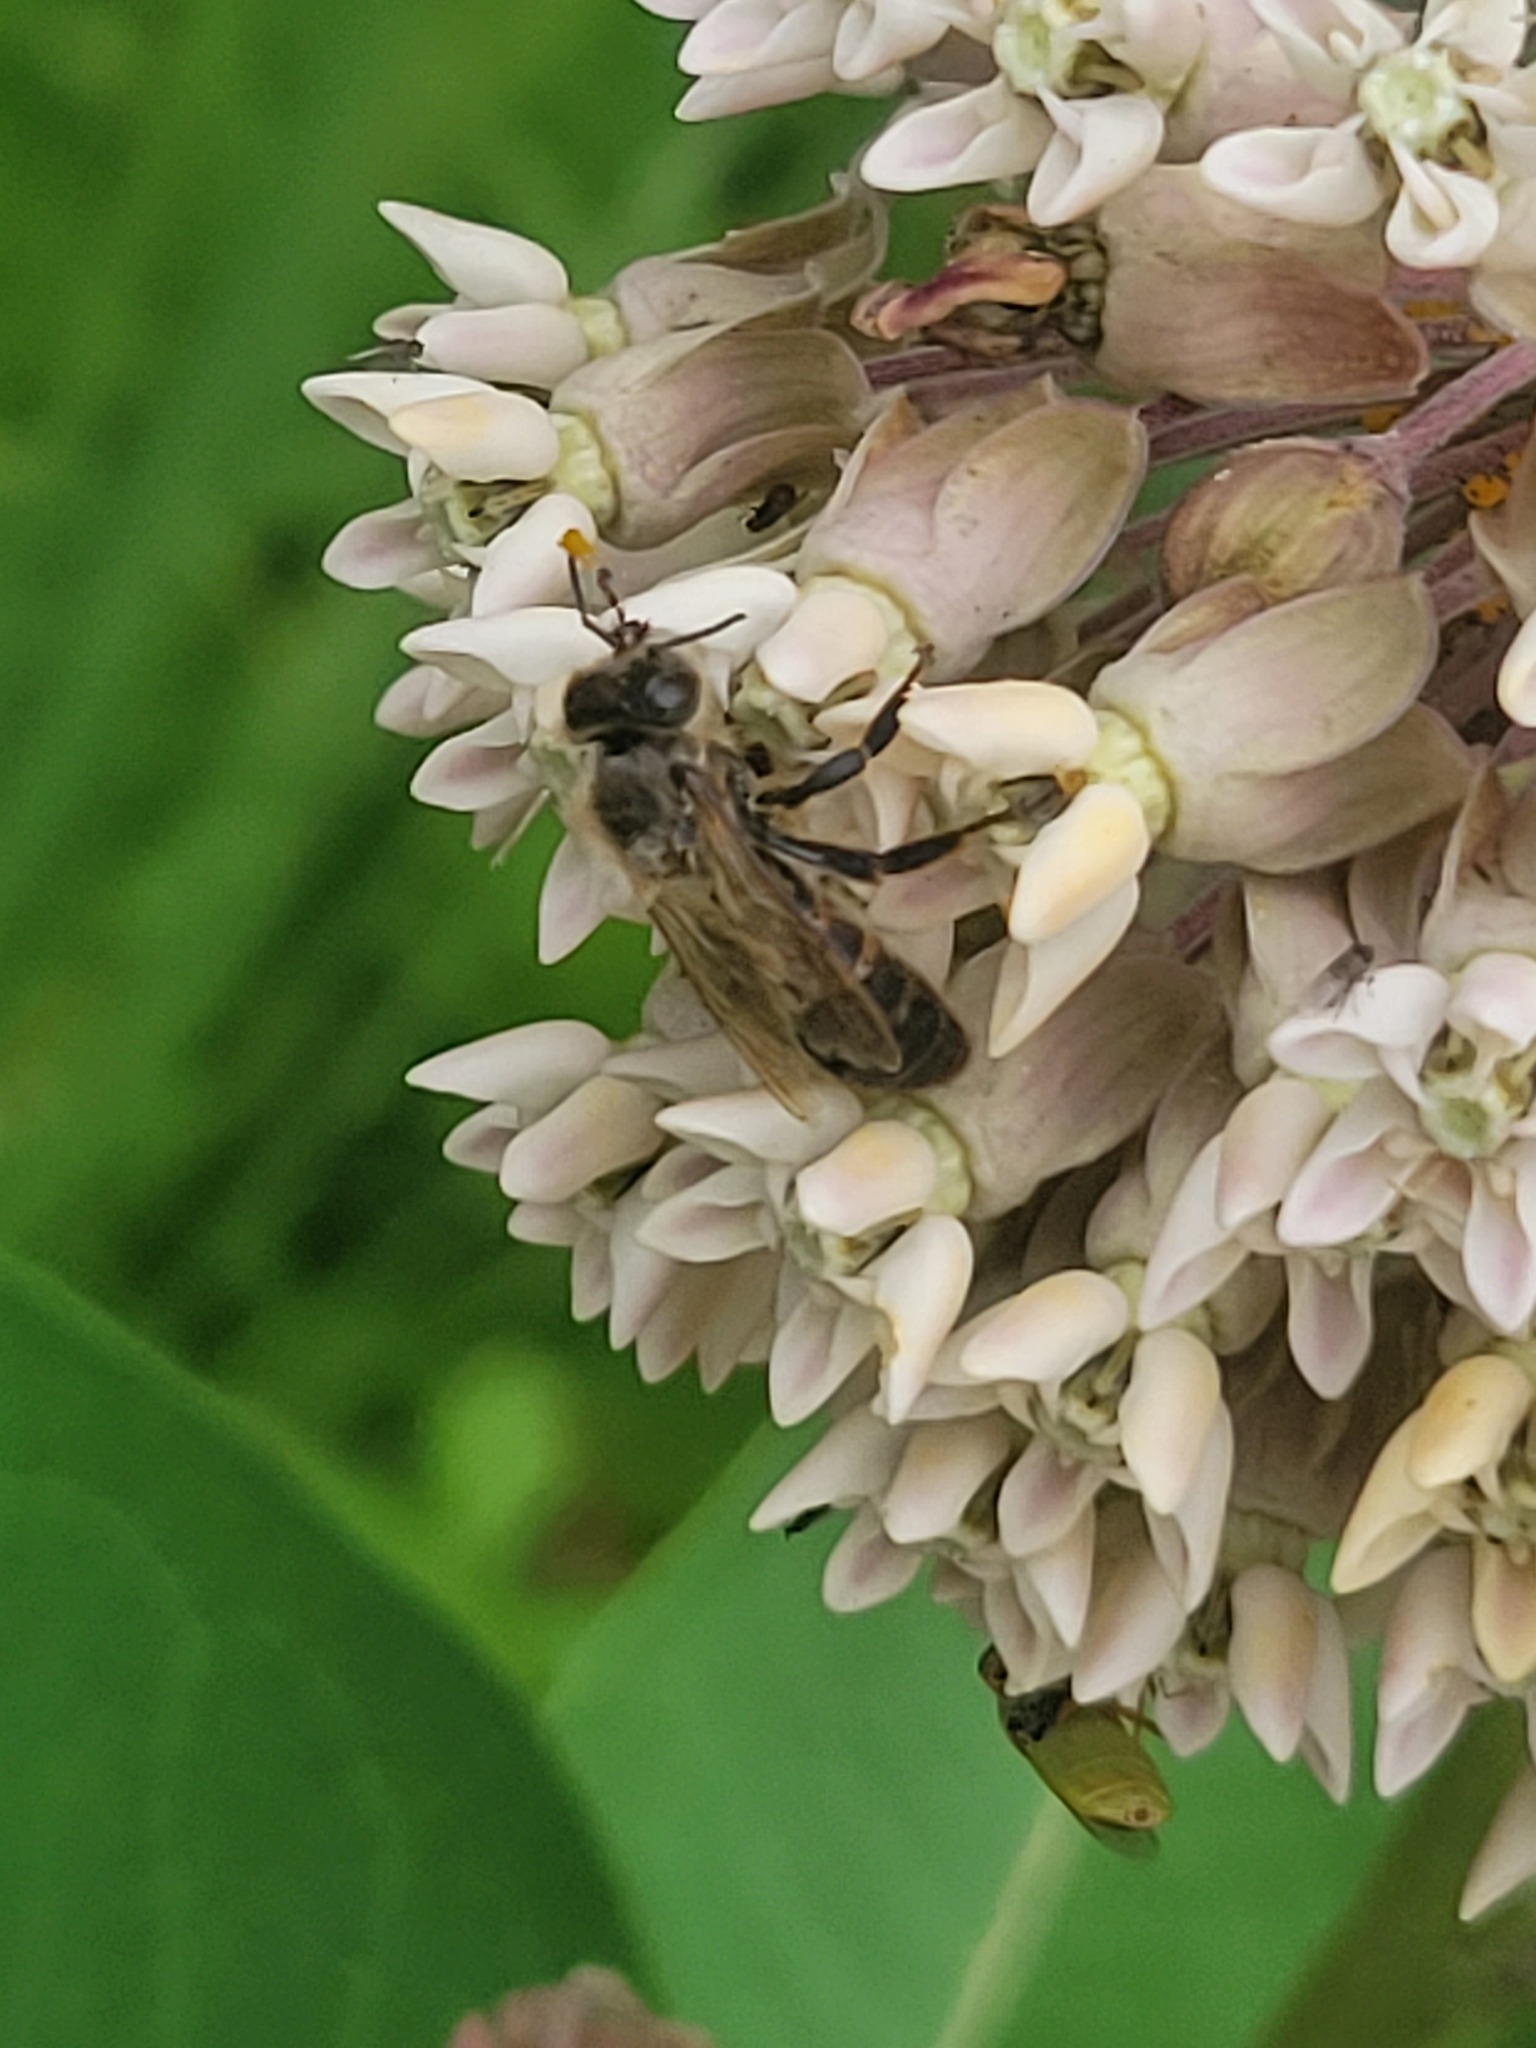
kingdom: Animalia
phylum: Arthropoda
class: Insecta
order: Hymenoptera
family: Apidae
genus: Apis
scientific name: Apis mellifera
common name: Honey bee
